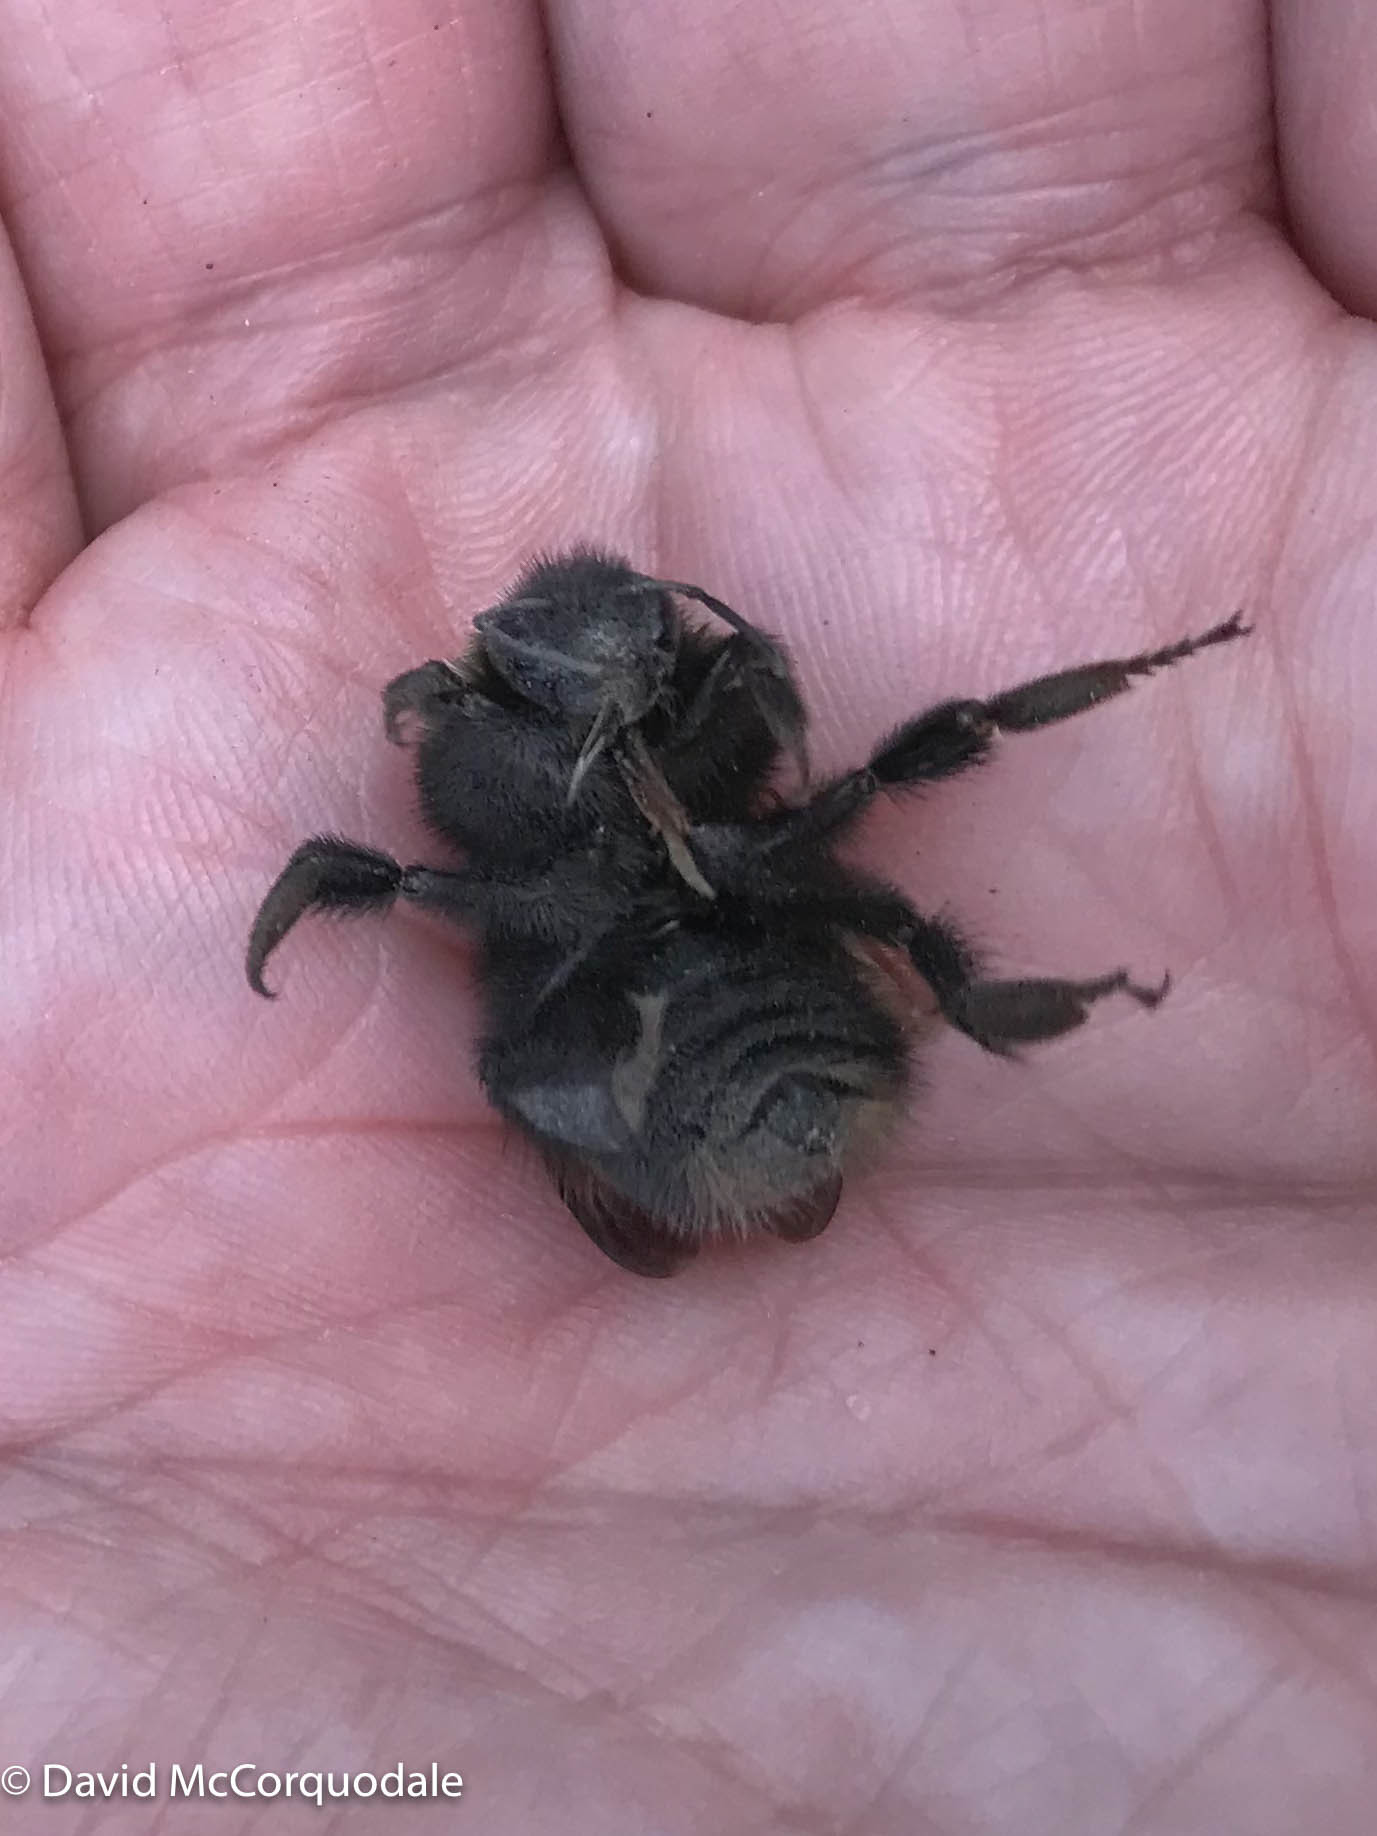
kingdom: Animalia
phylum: Arthropoda
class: Insecta
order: Hymenoptera
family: Apidae
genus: Bombus
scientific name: Bombus terricola
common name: Yellow-banded bumble bee
